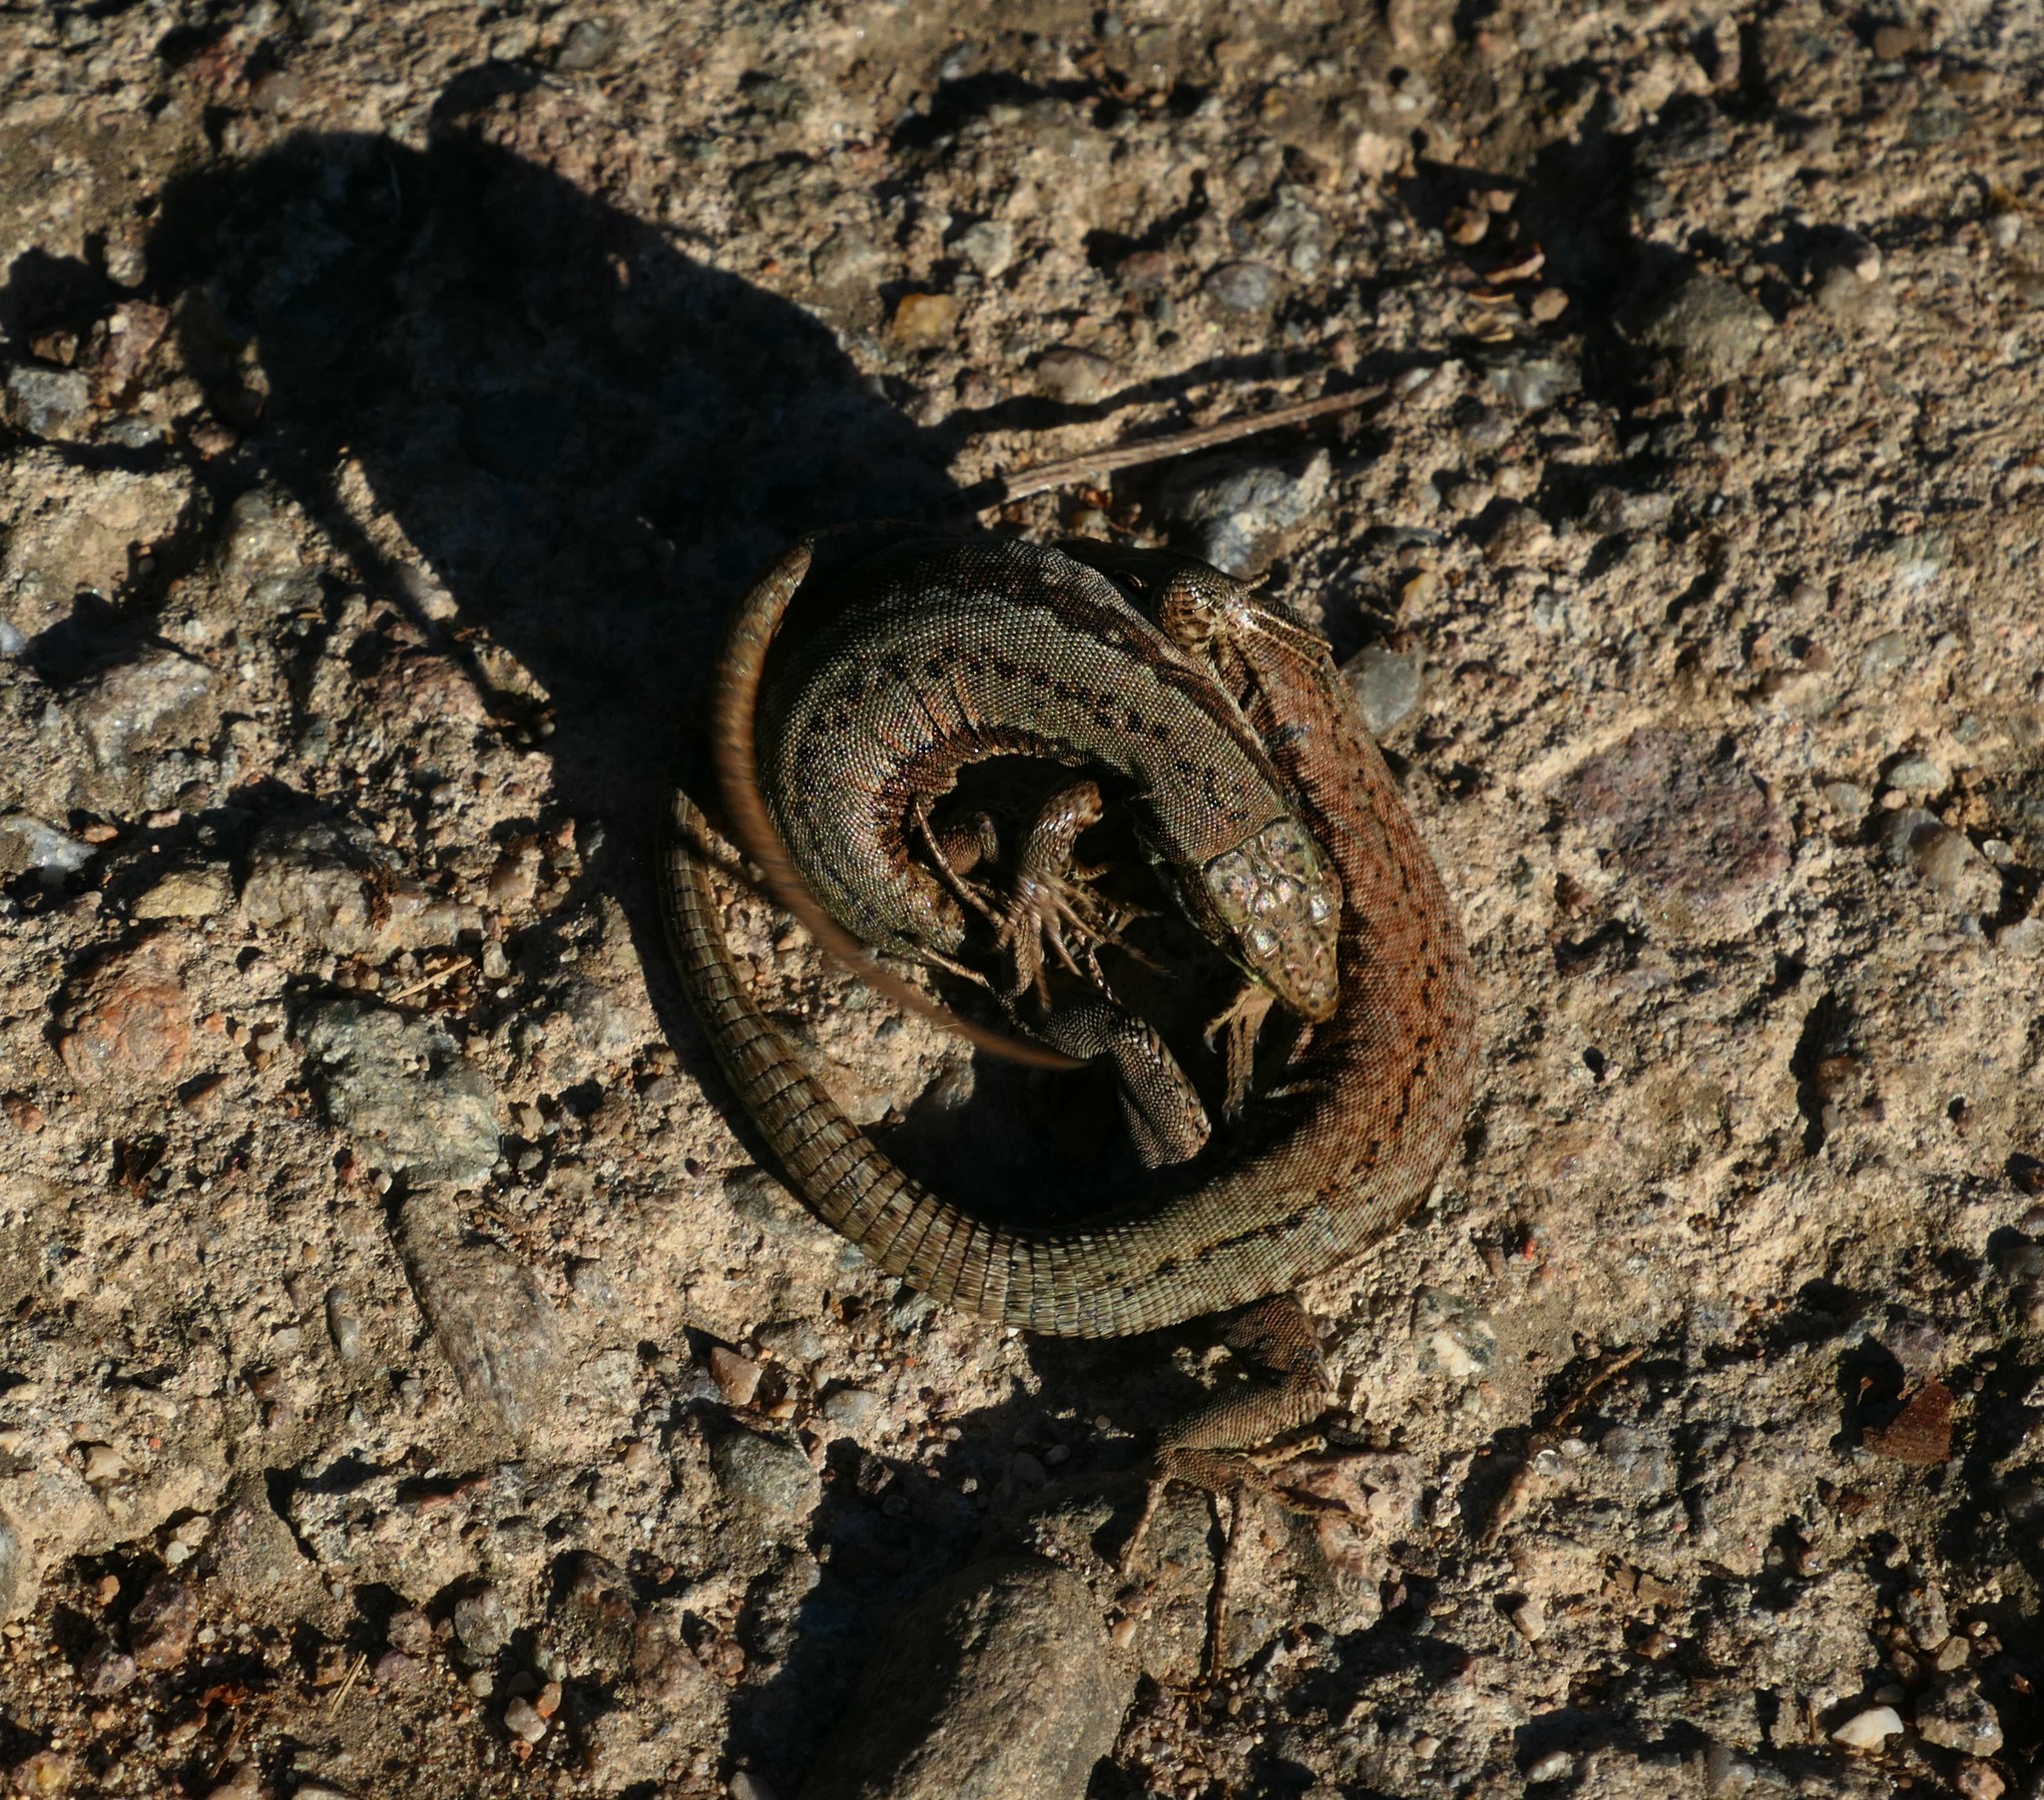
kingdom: Animalia
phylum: Chordata
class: Squamata
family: Lacertidae
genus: Podarcis
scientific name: Podarcis muralis
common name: Common wall lizard
